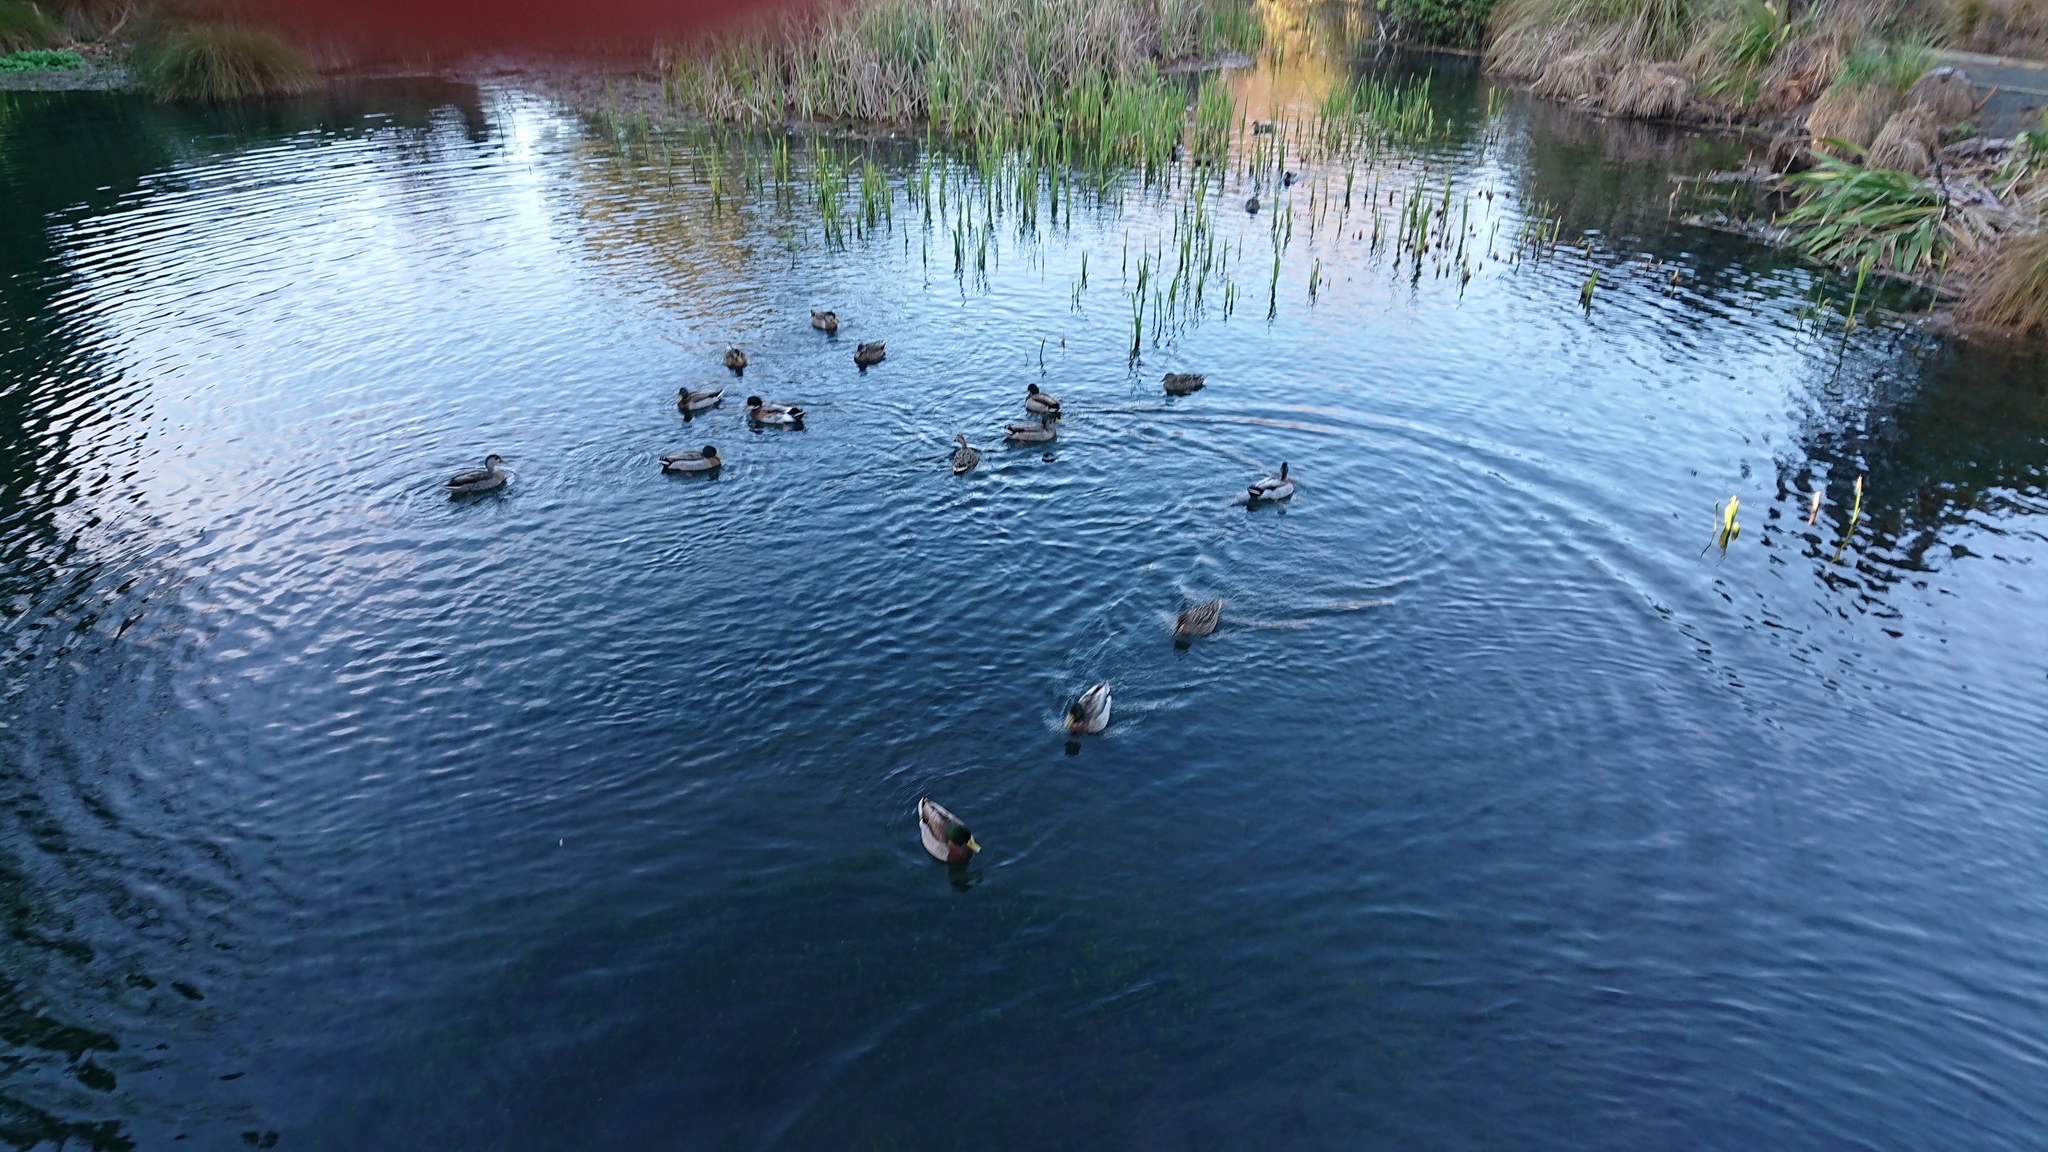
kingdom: Animalia
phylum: Chordata
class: Aves
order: Anseriformes
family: Anatidae
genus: Anas
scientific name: Anas platyrhynchos
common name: Mallard
